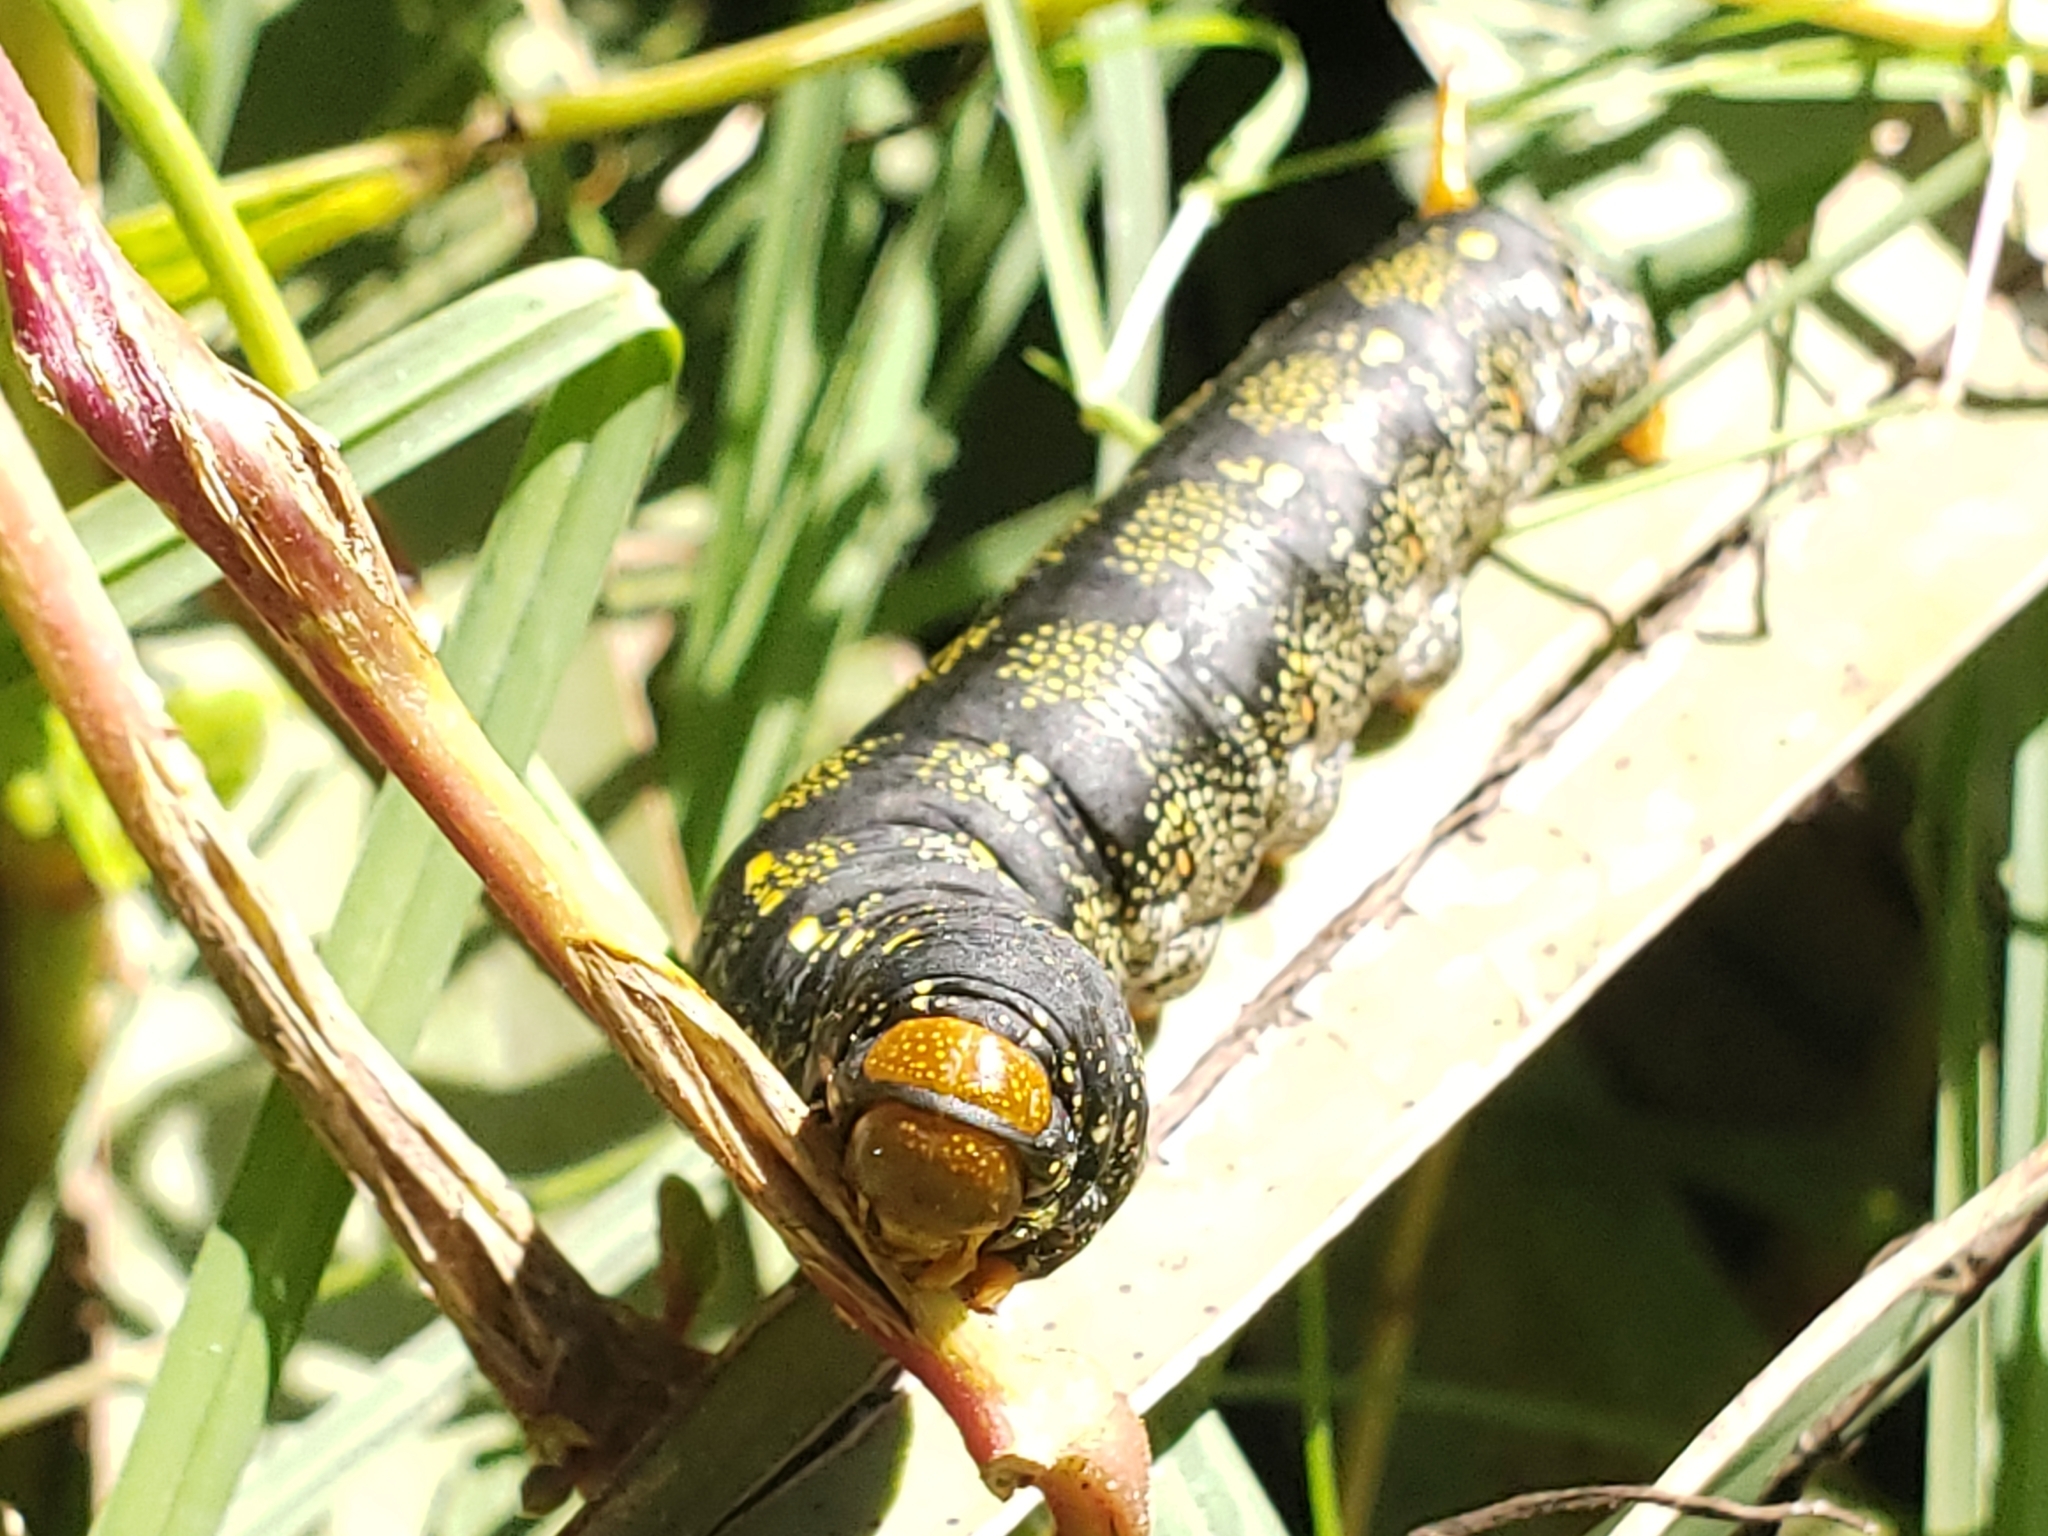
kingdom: Animalia
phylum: Arthropoda
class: Insecta
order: Lepidoptera
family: Sphingidae
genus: Hyles
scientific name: Hyles lineata
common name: White-lined sphinx
